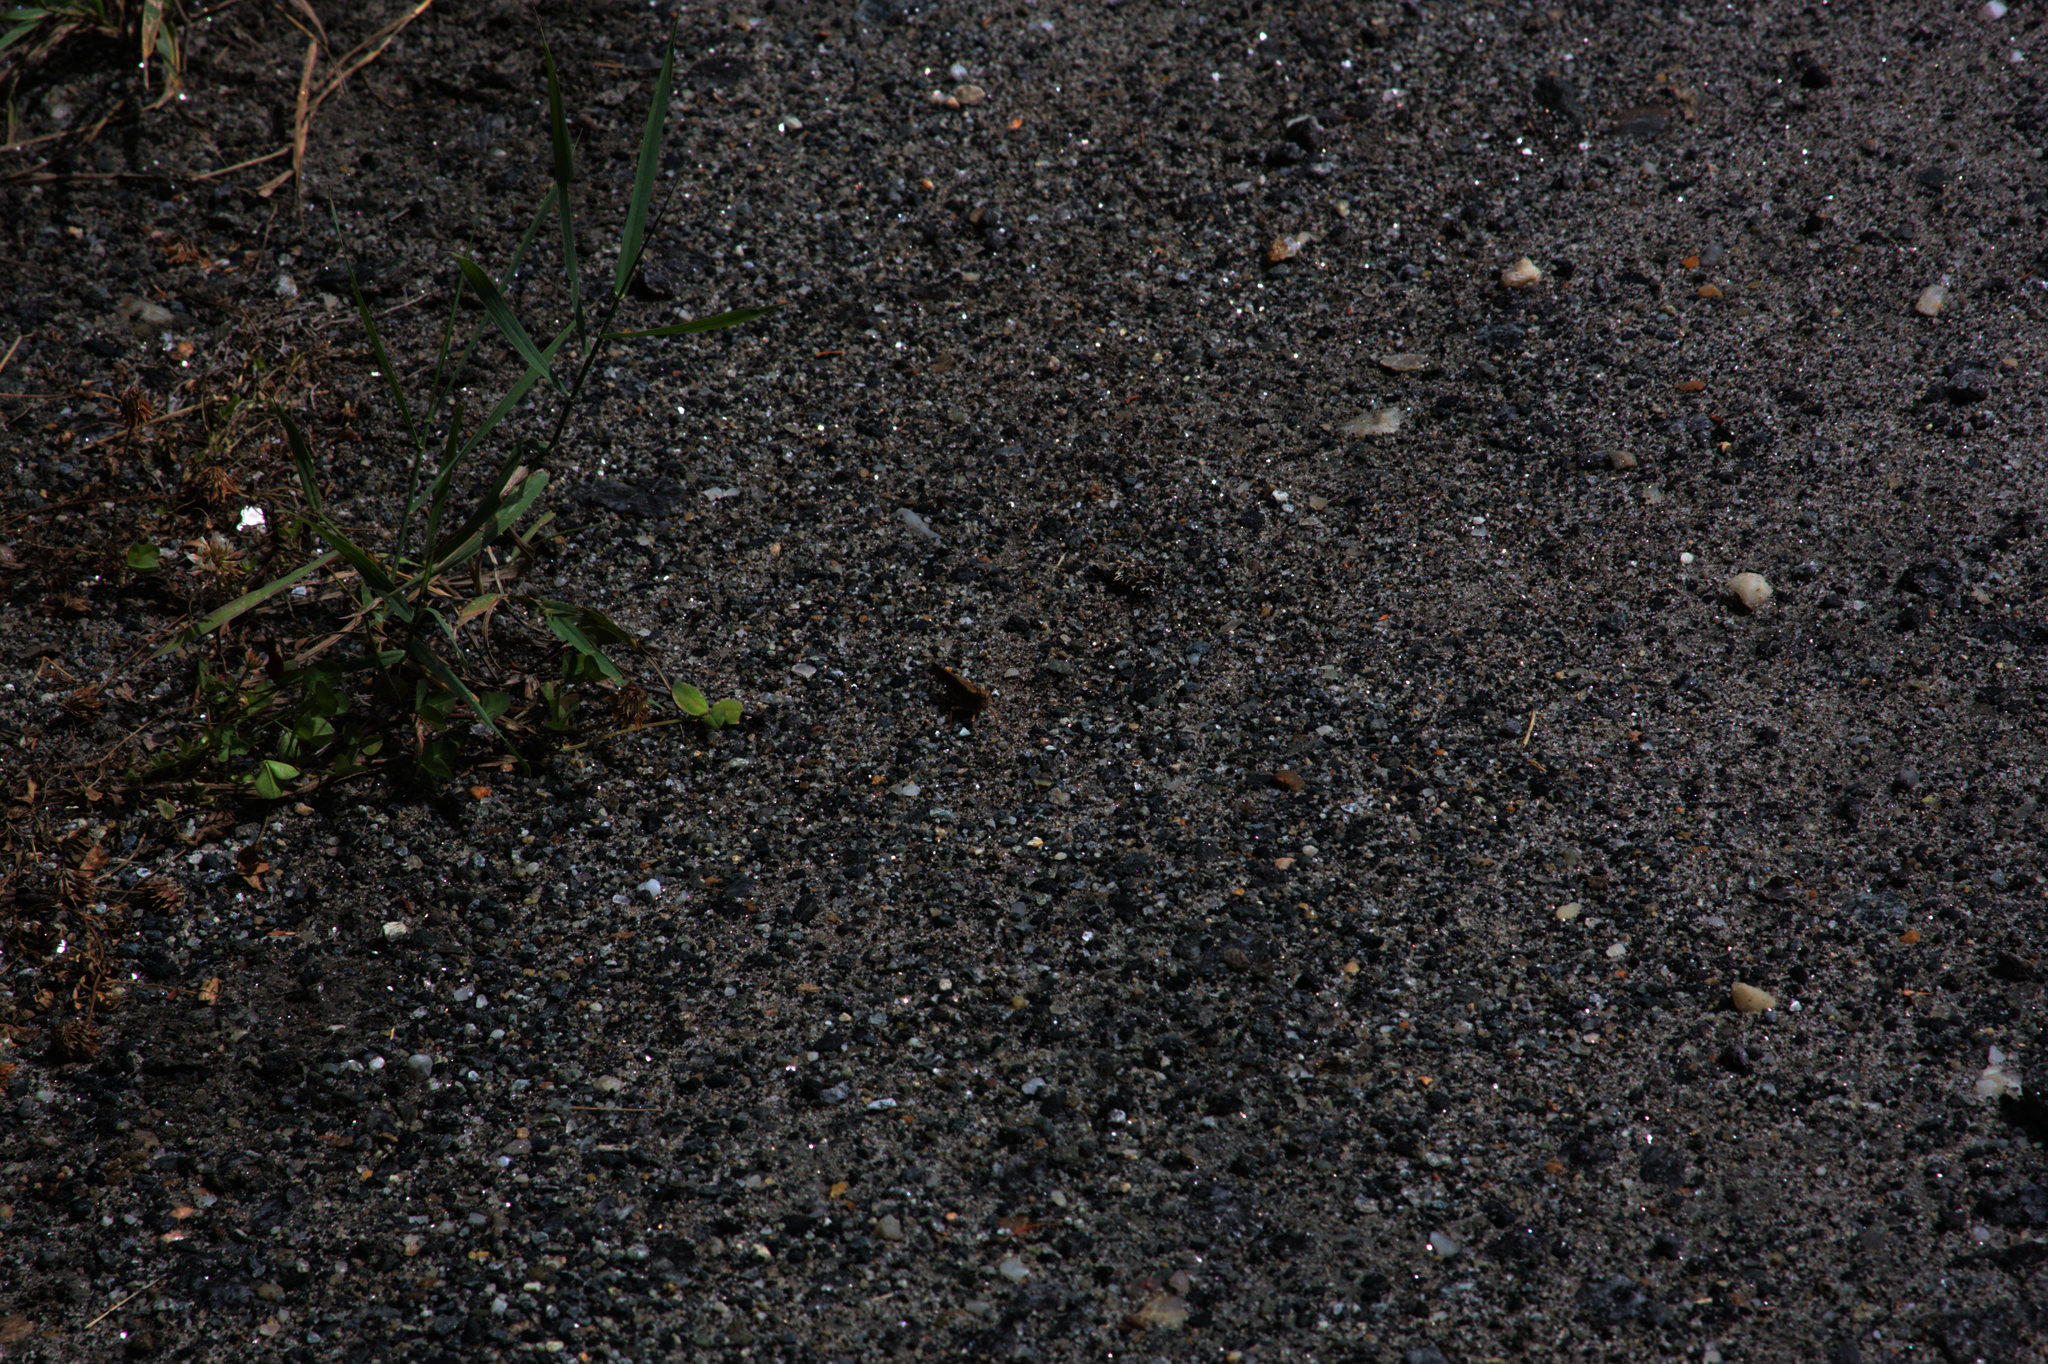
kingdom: Animalia
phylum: Arthropoda
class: Insecta
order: Orthoptera
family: Acrididae
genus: Dissosteira
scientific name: Dissosteira carolina
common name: Carolina grasshopper
